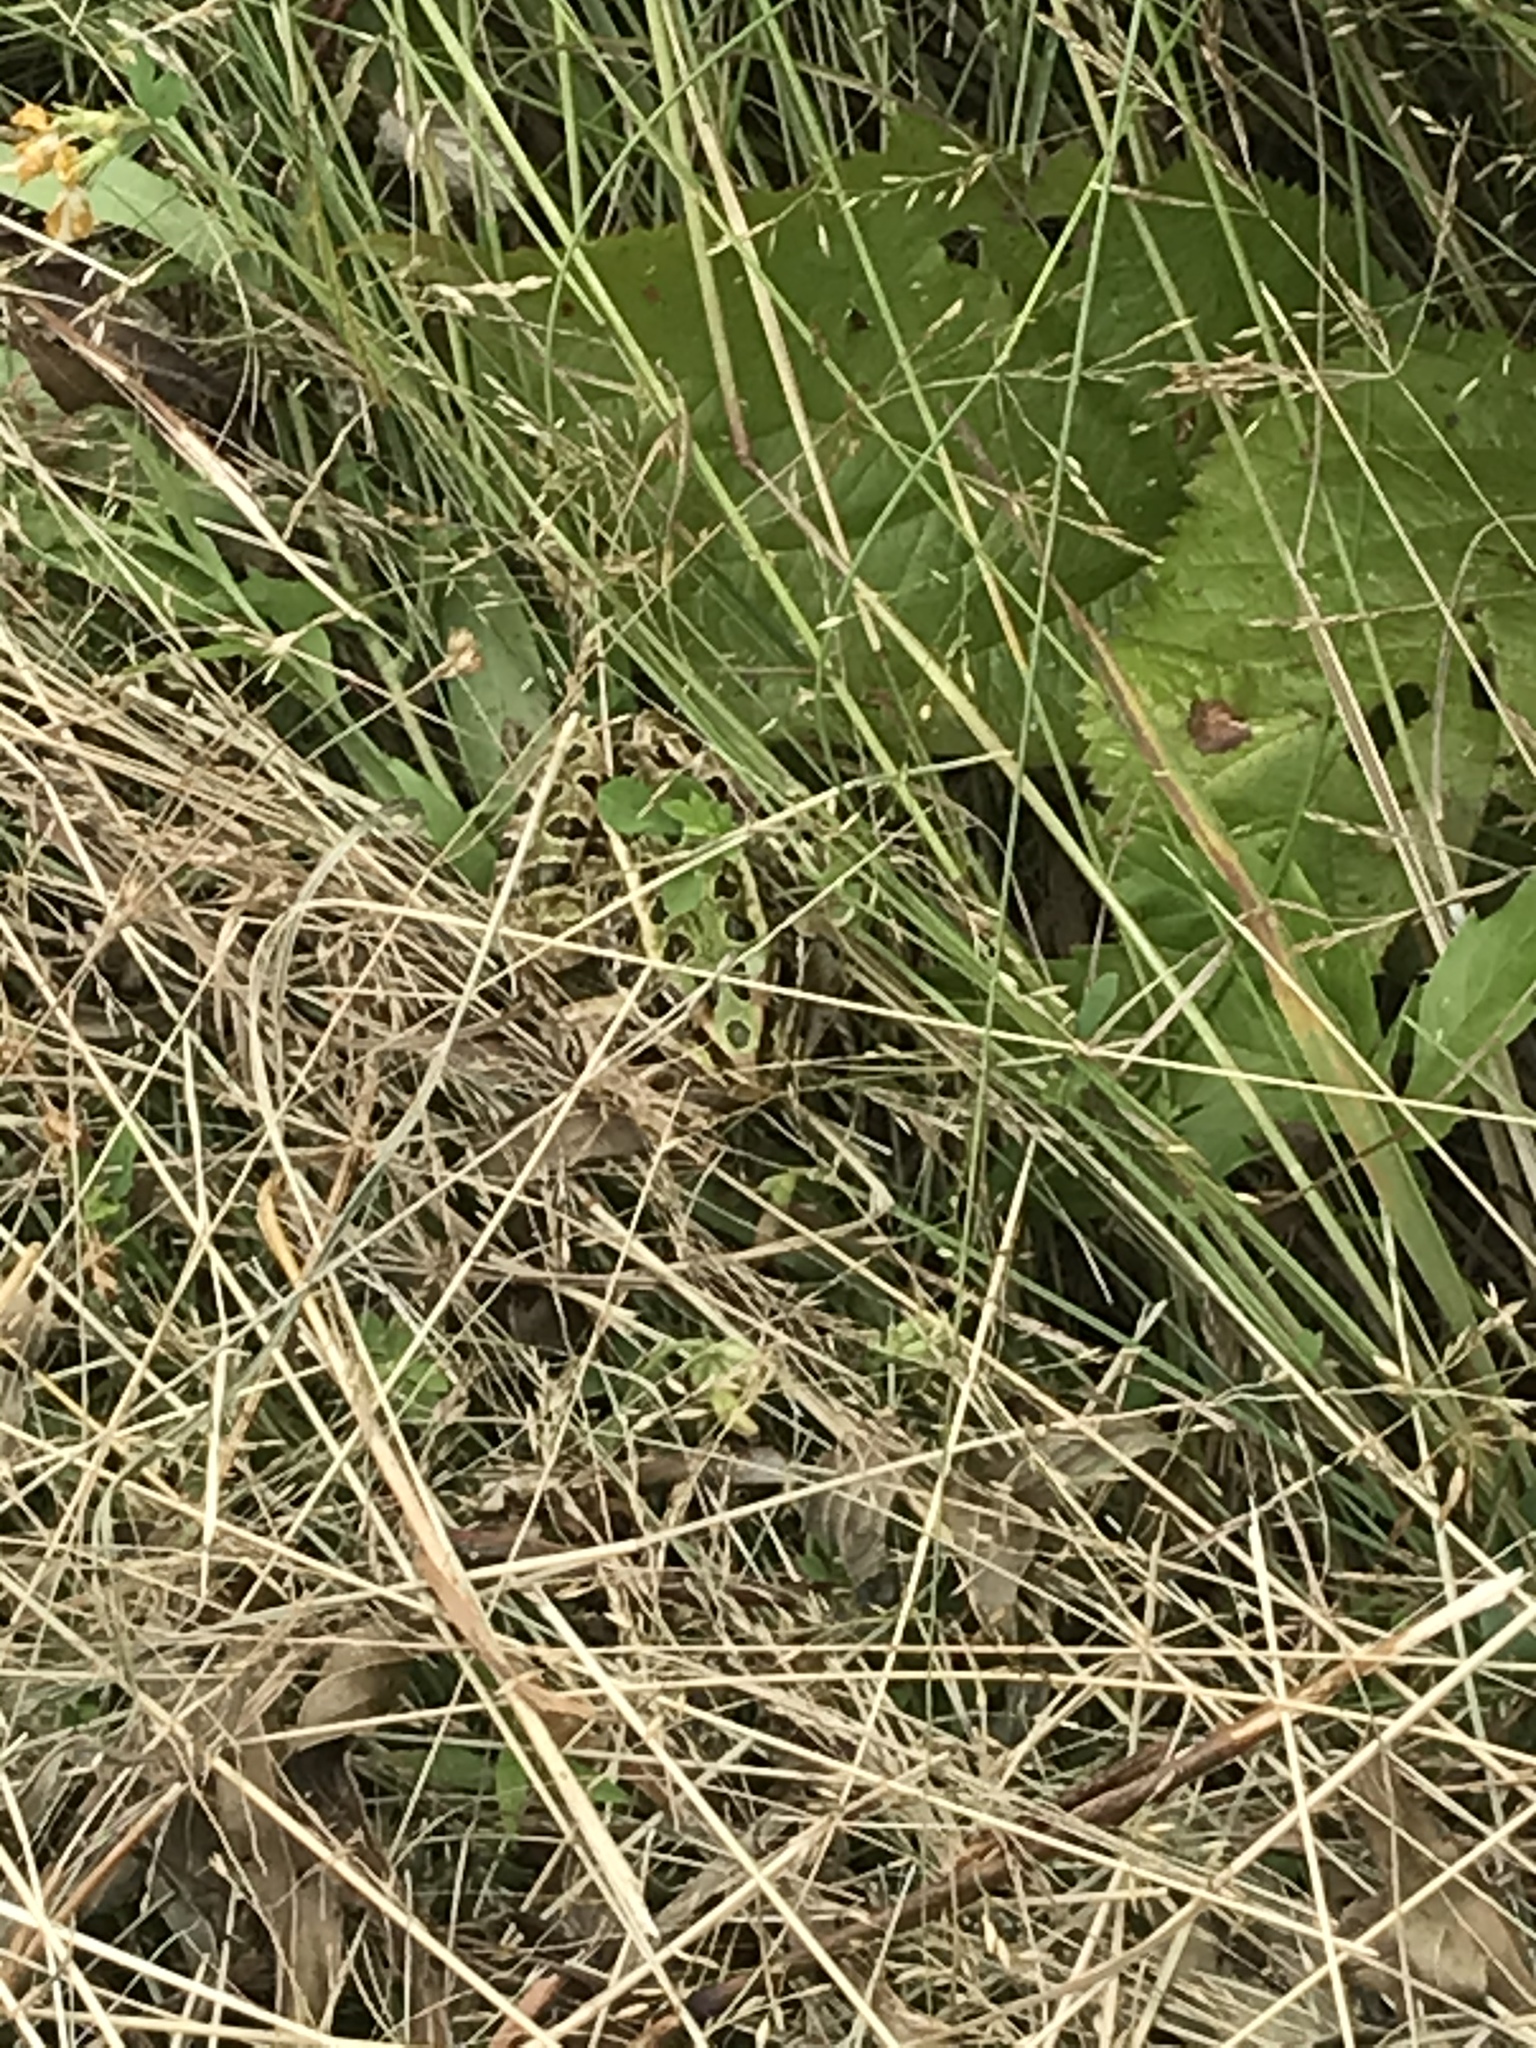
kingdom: Animalia
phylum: Chordata
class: Amphibia
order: Anura
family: Ranidae
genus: Lithobates
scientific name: Lithobates pipiens
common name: Northern leopard frog
